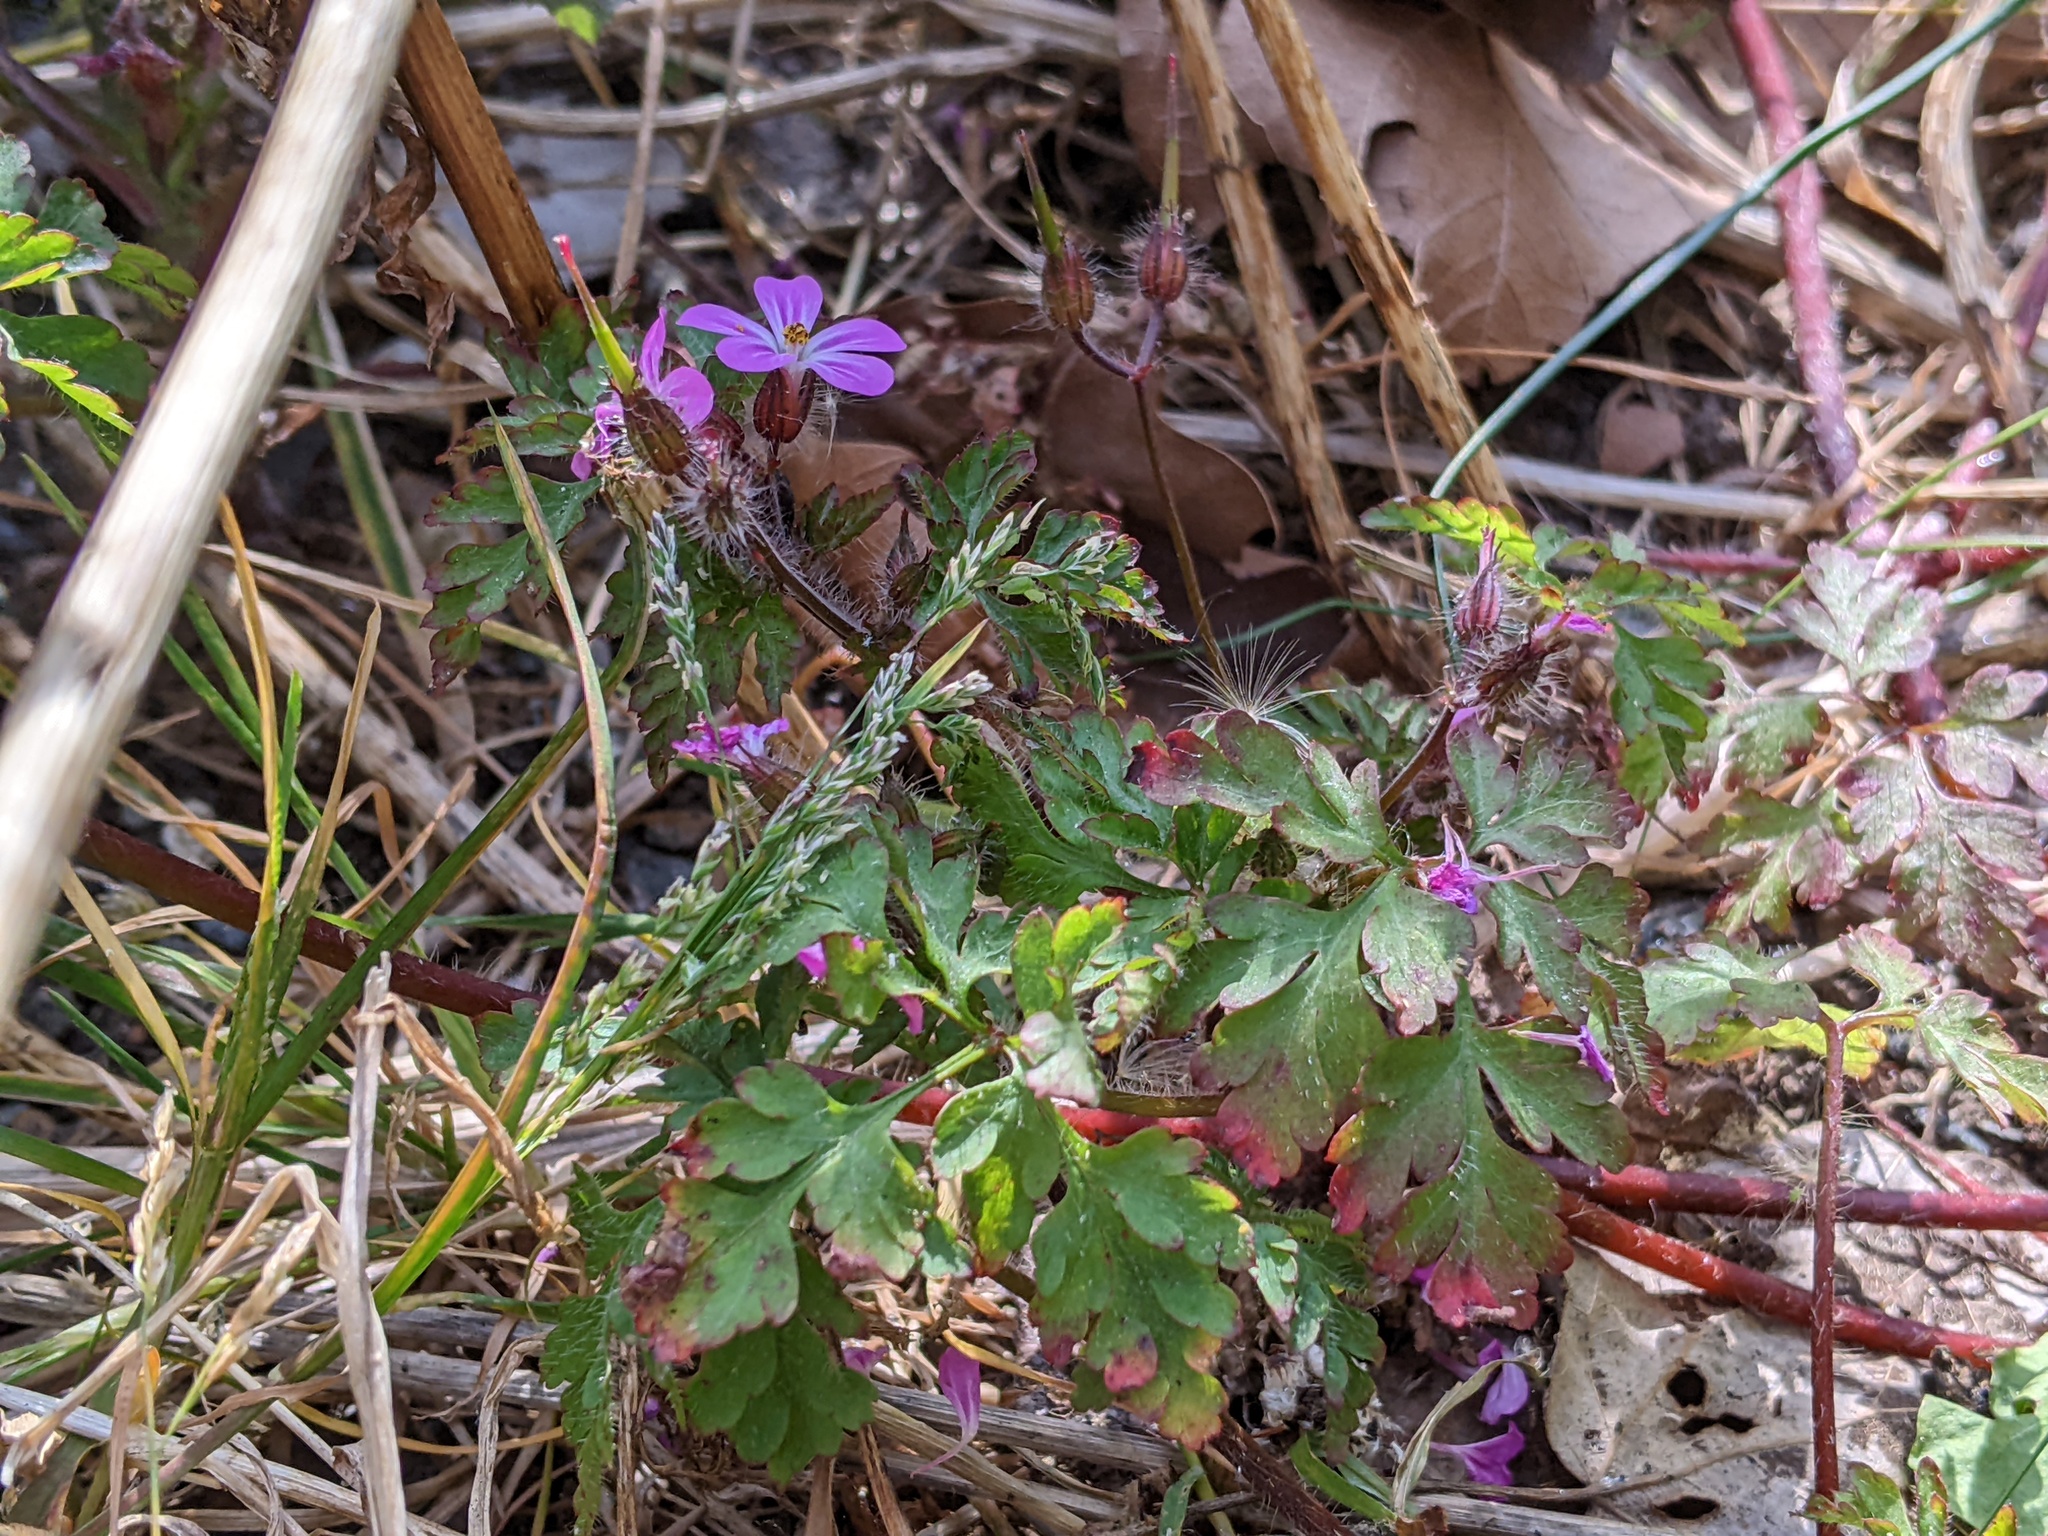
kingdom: Plantae
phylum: Tracheophyta
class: Magnoliopsida
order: Geraniales
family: Geraniaceae
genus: Geranium
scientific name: Geranium robertianum
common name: Herb-robert
